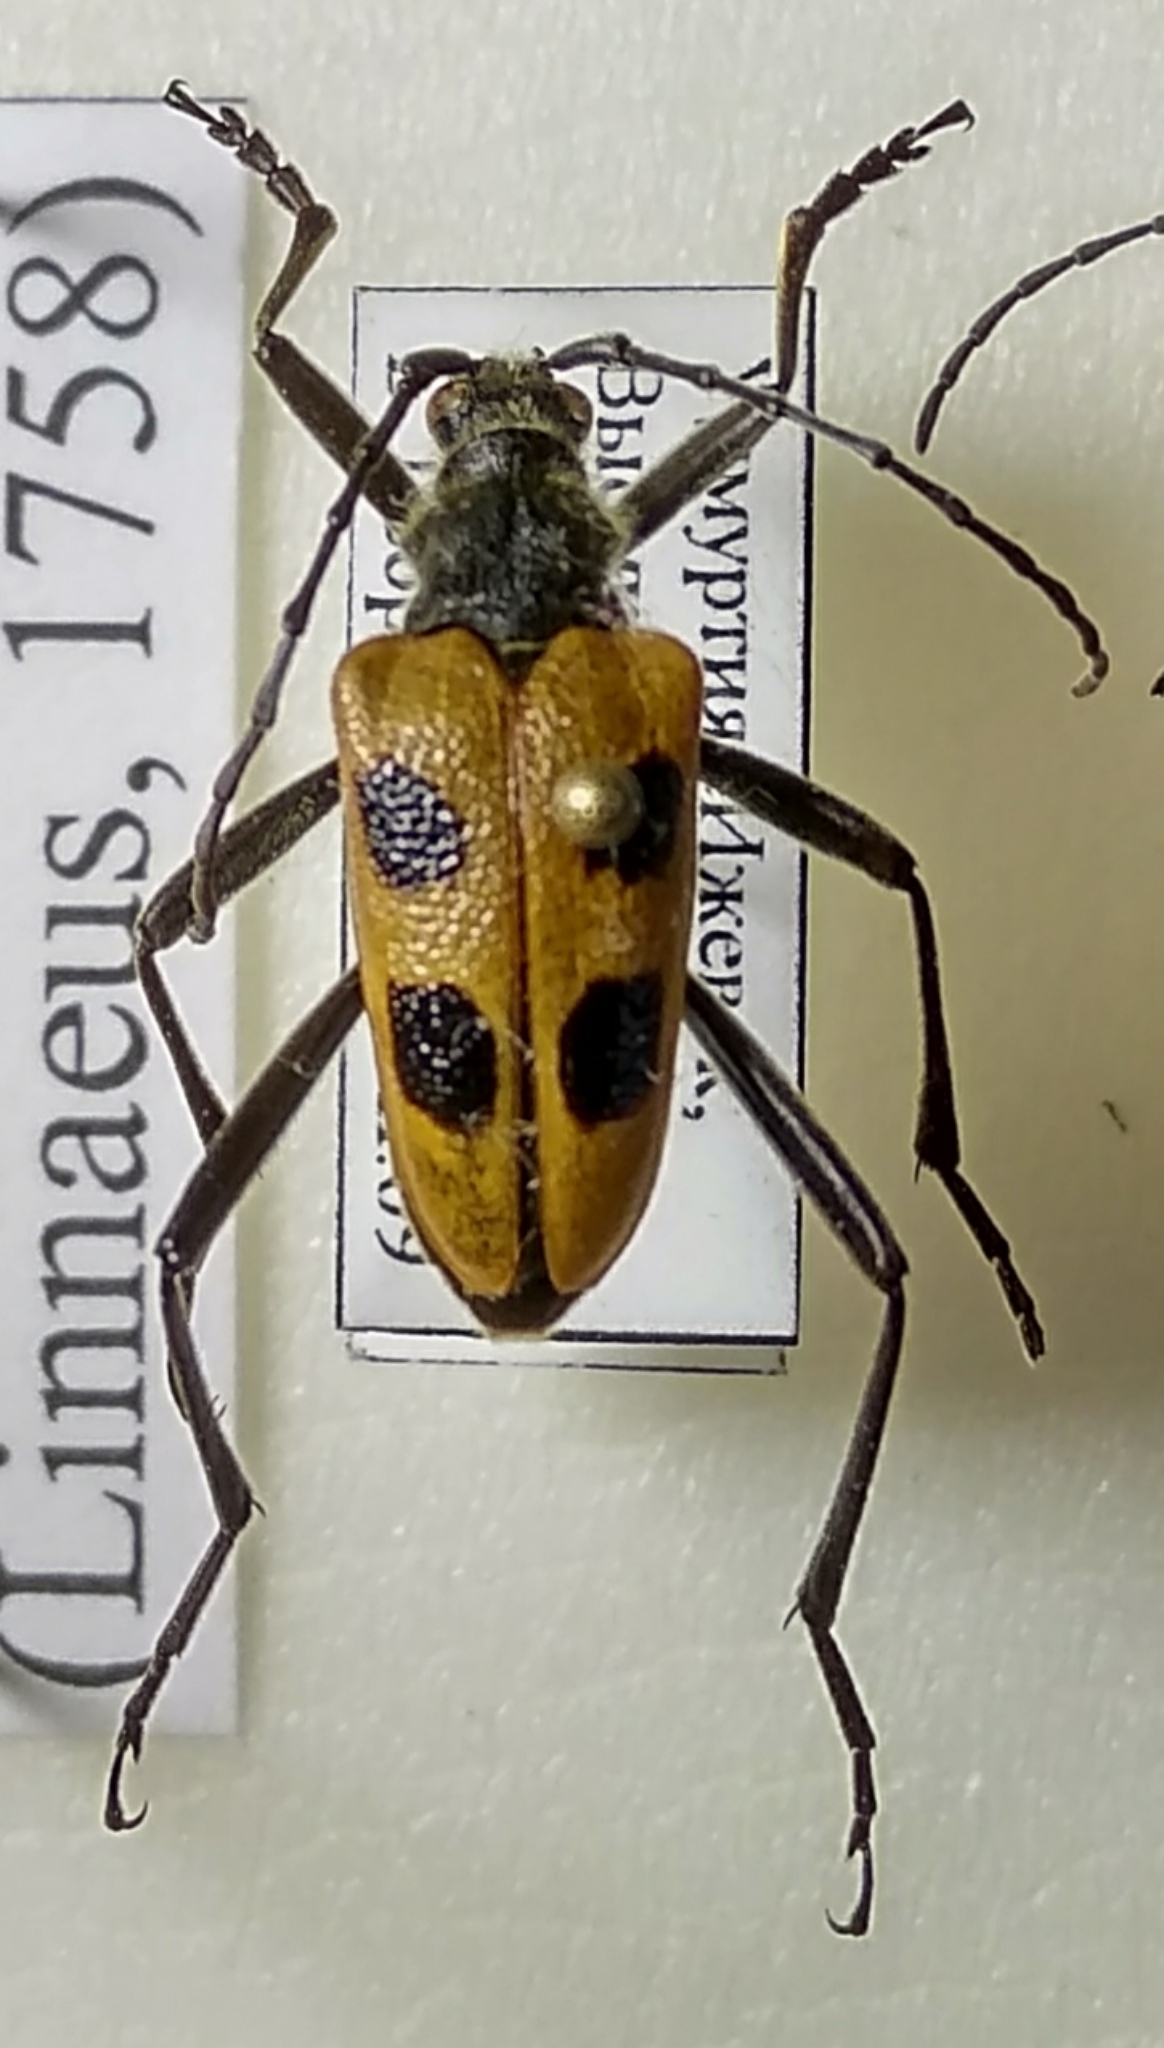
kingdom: Animalia
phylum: Arthropoda
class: Insecta
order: Coleoptera
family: Cerambycidae
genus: Pachyta
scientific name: Pachyta quadrimaculata
